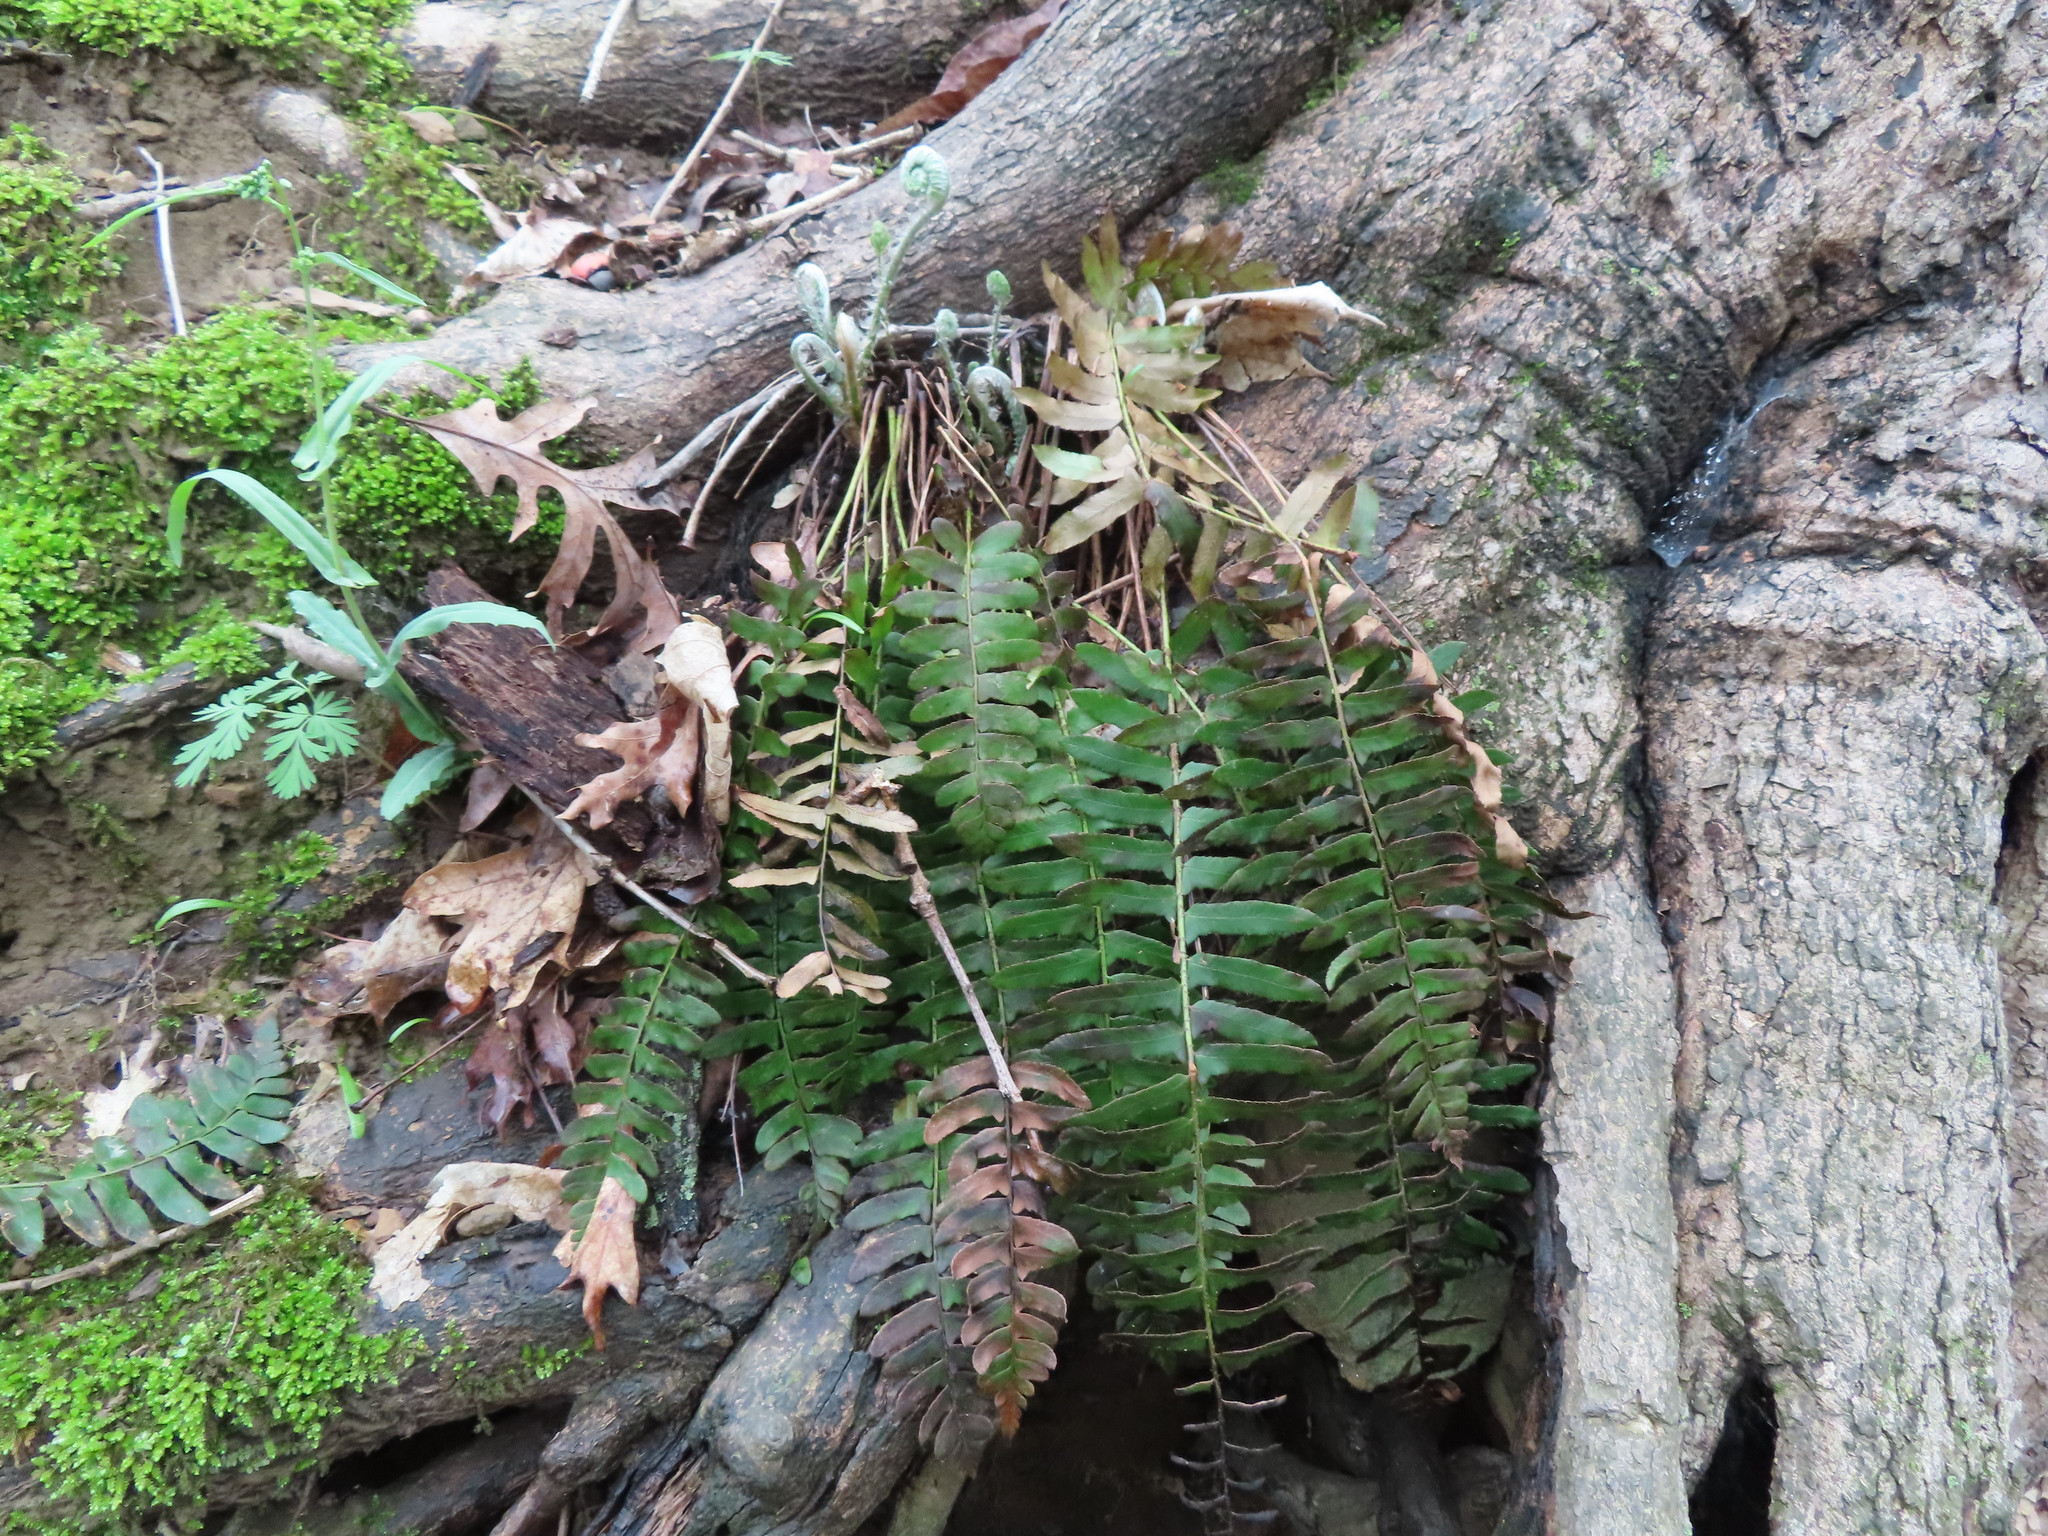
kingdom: Plantae
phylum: Tracheophyta
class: Polypodiopsida
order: Polypodiales
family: Dryopteridaceae
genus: Polystichum
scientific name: Polystichum acrostichoides
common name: Christmas fern
